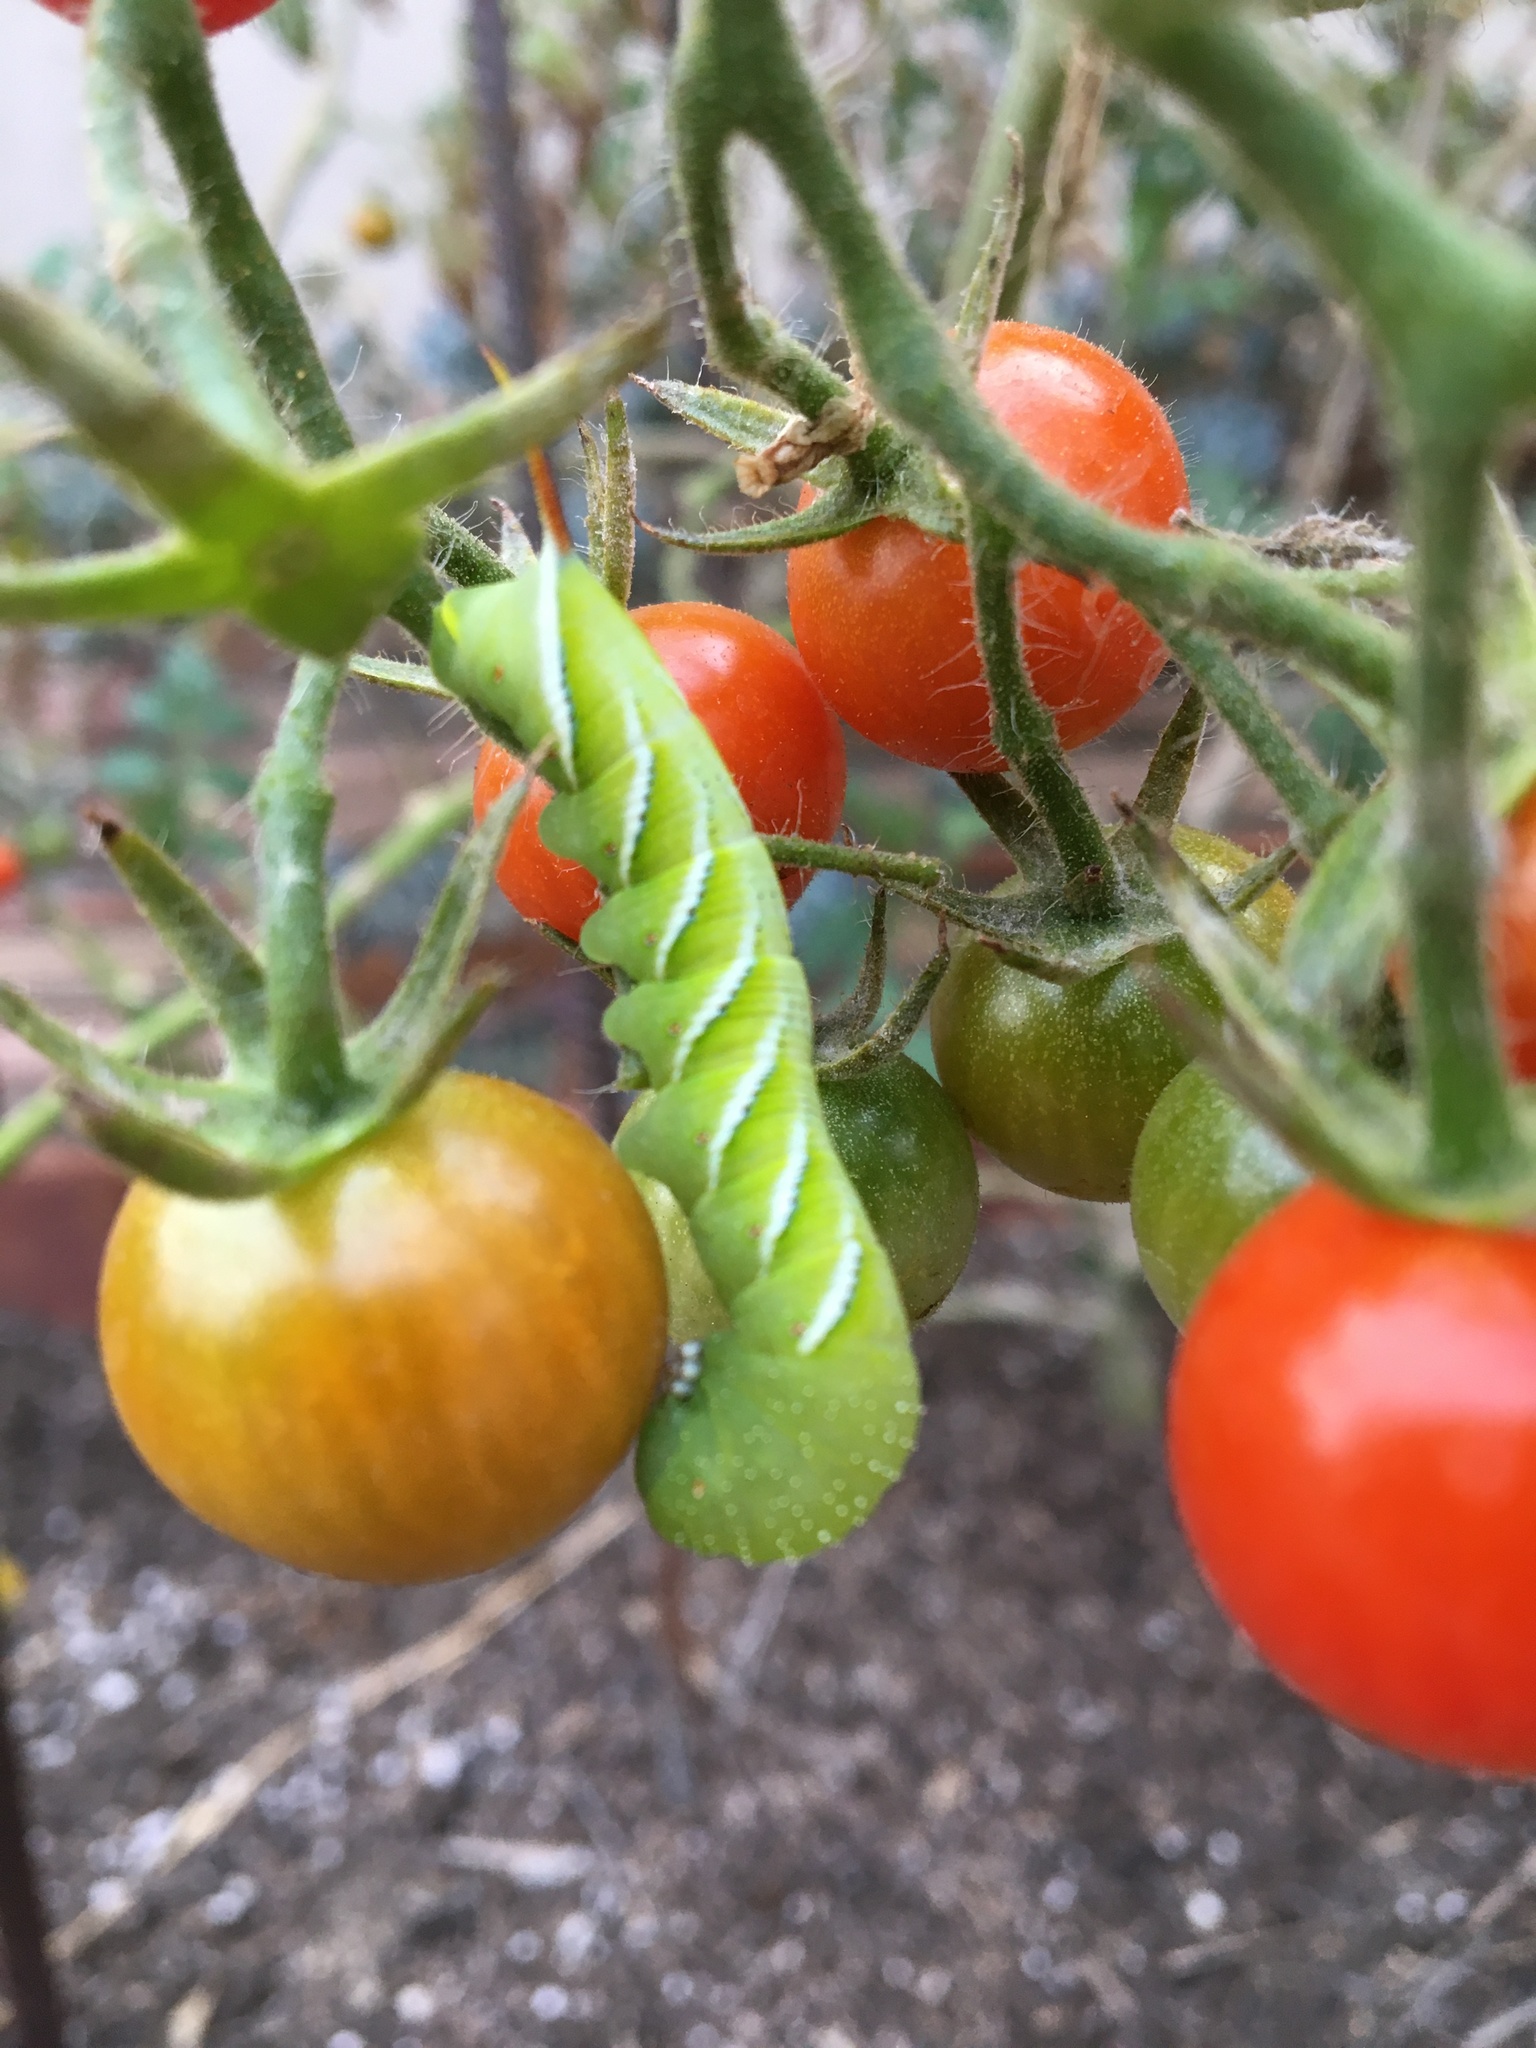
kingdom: Animalia
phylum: Arthropoda
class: Insecta
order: Lepidoptera
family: Sphingidae
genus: Manduca
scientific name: Manduca sexta
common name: Carolina sphinx
